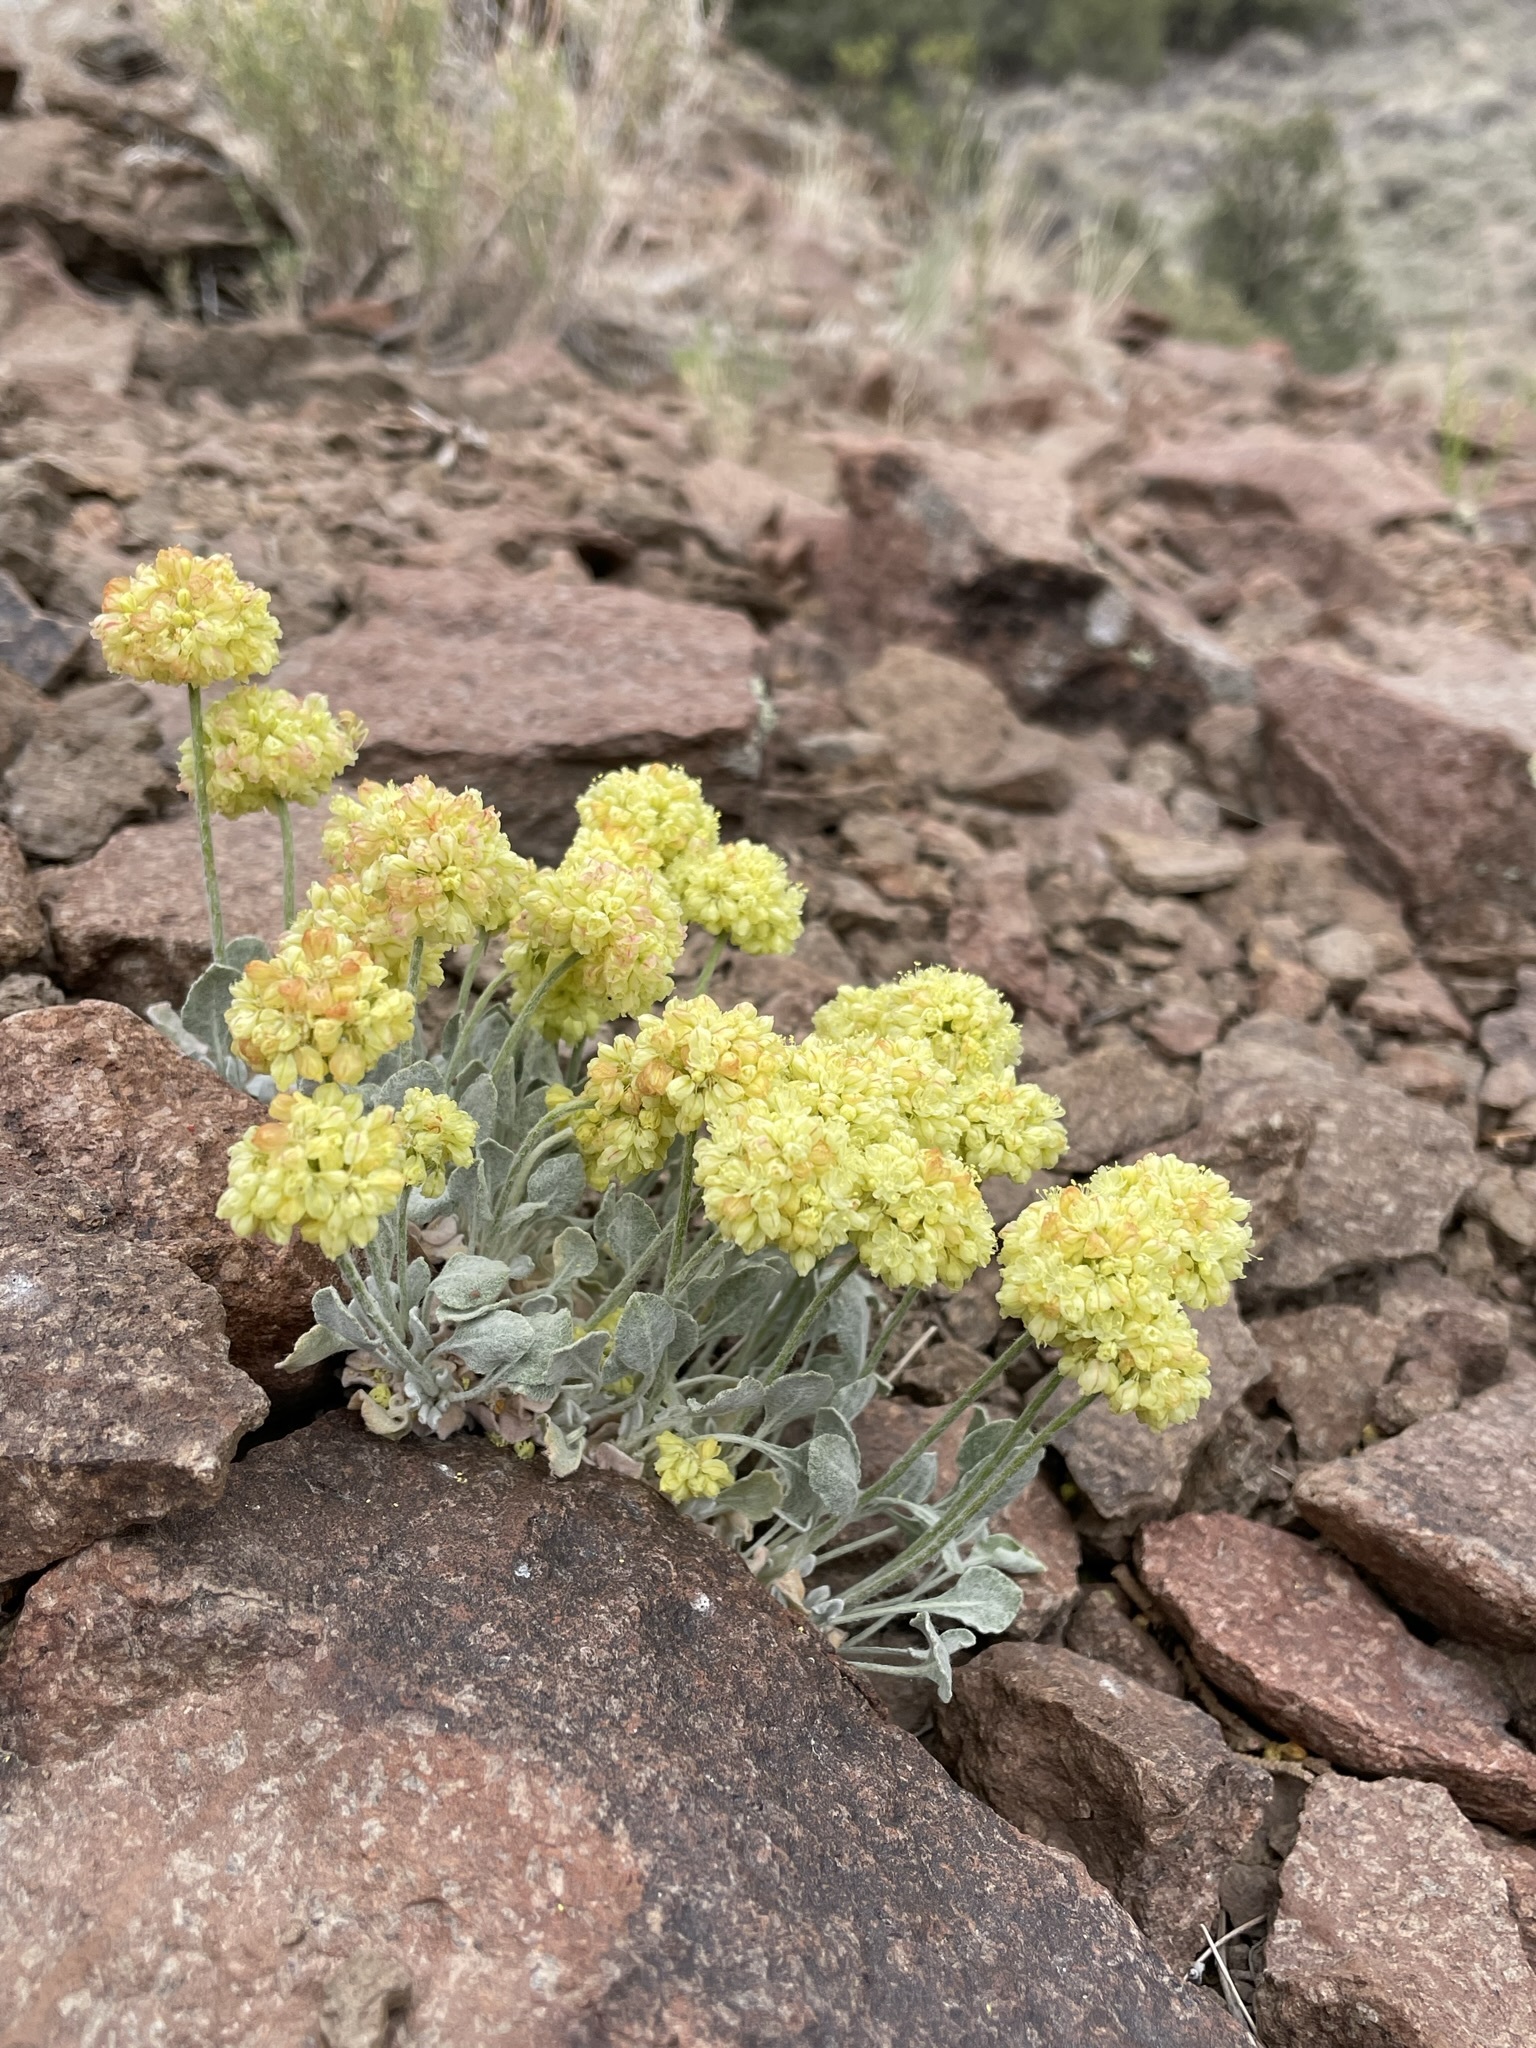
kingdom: Plantae
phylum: Tracheophyta
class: Magnoliopsida
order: Caryophyllales
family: Polygonaceae
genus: Eriogonum
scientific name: Eriogonum ovalifolium
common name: Cushion buckwheat
